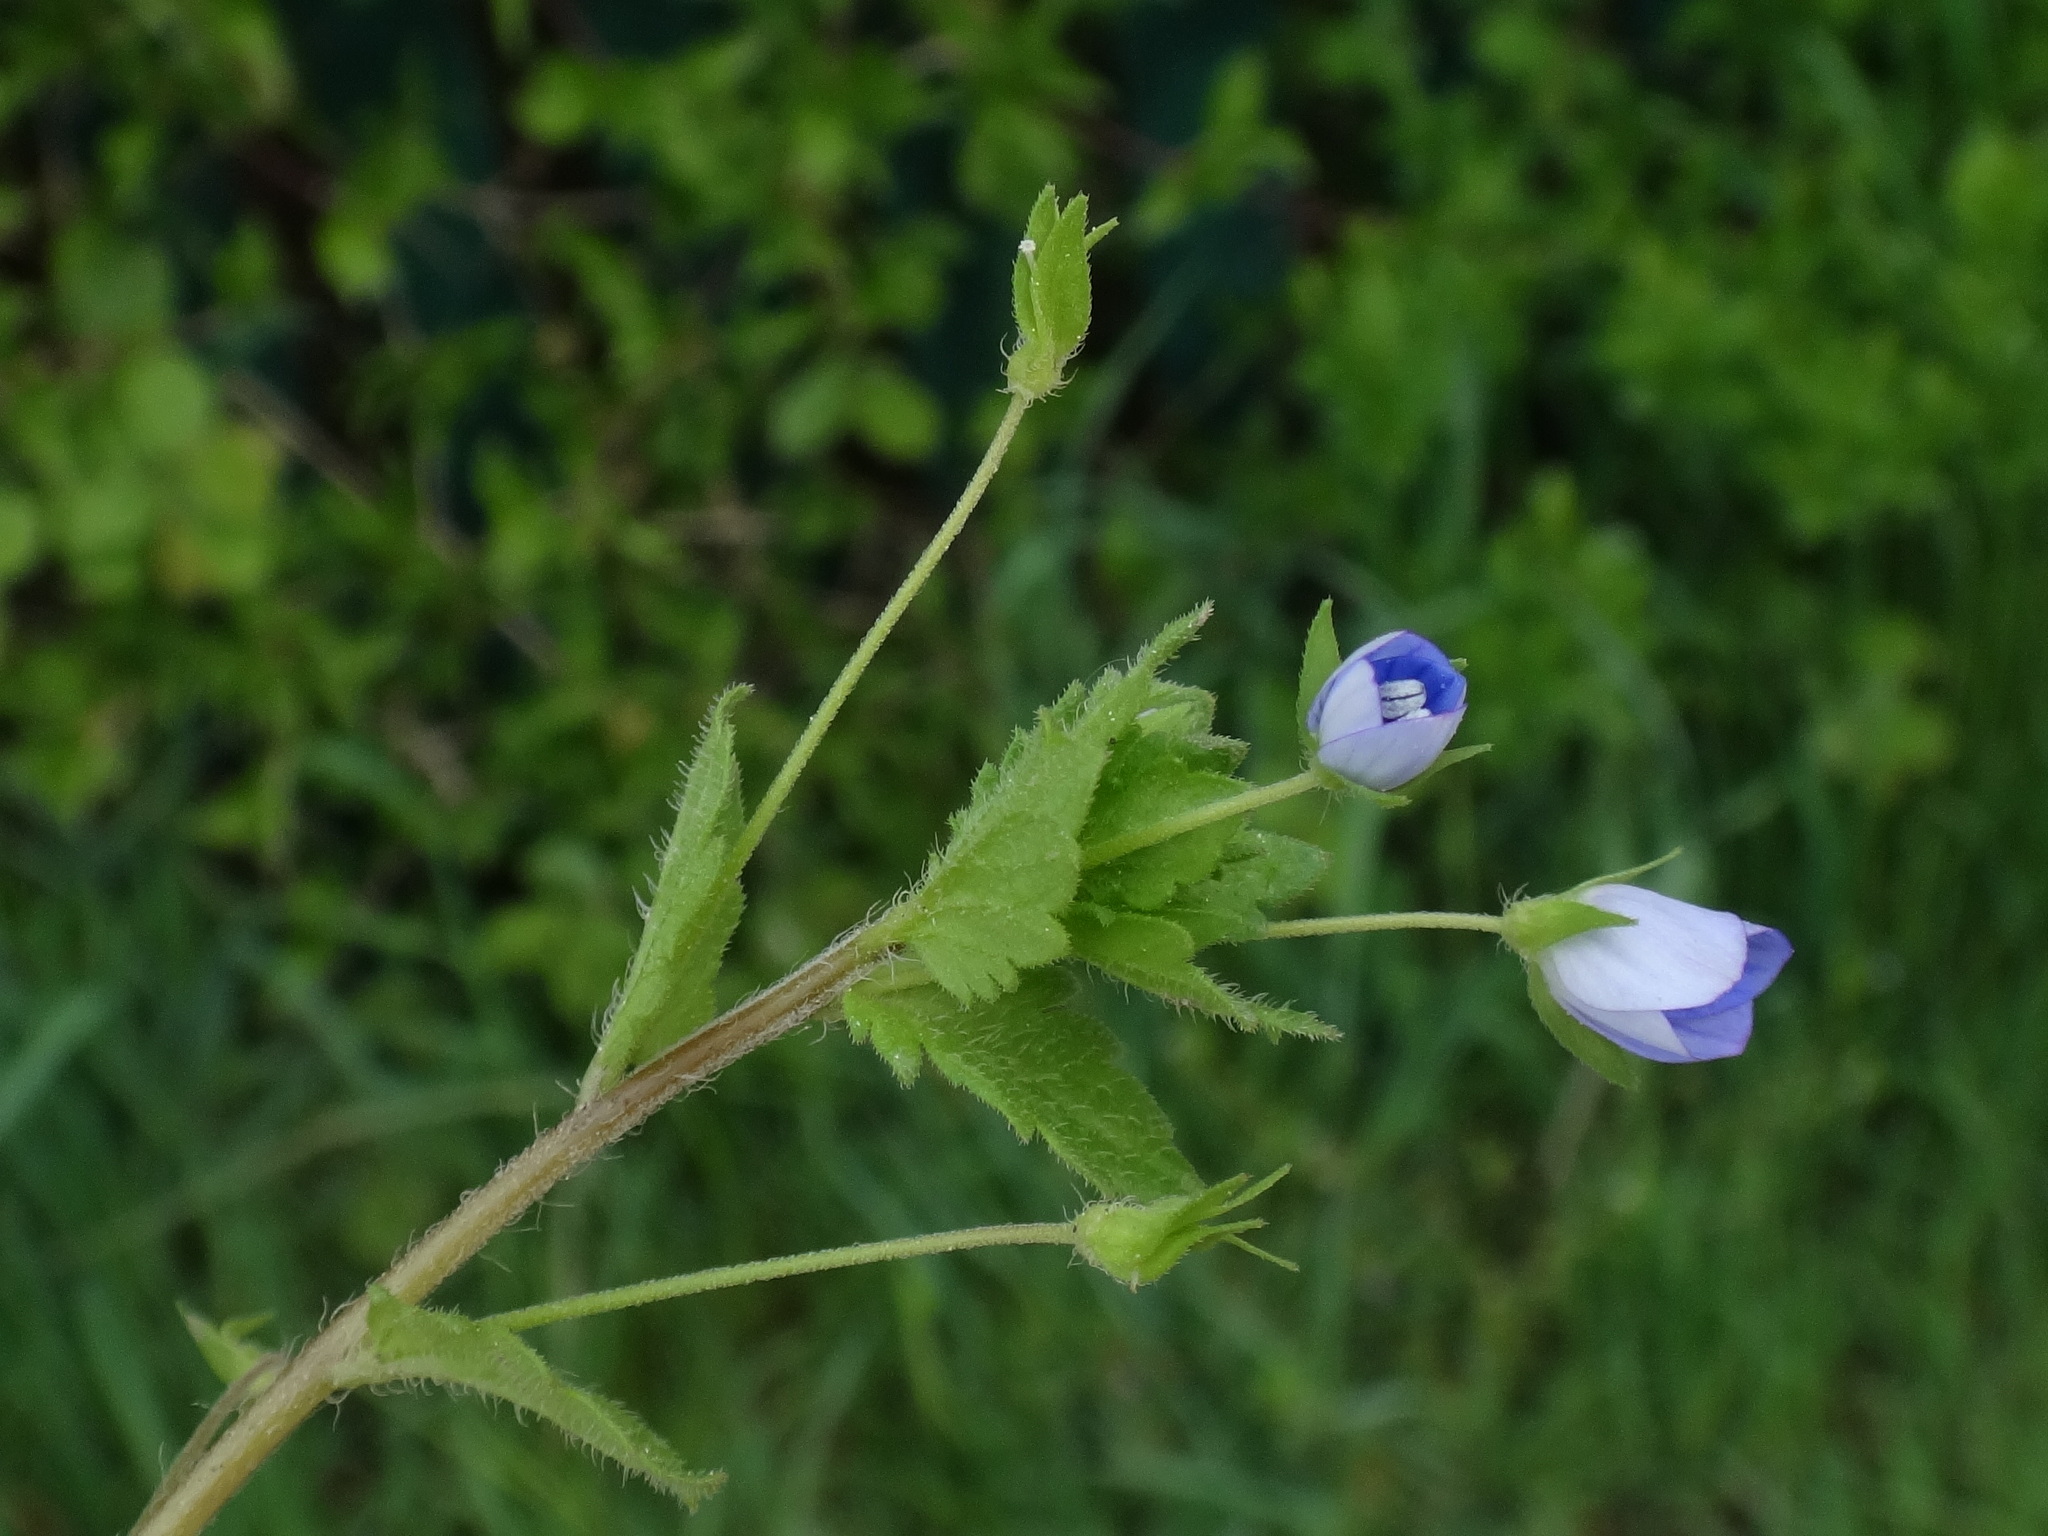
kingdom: Plantae
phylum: Tracheophyta
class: Magnoliopsida
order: Lamiales
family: Plantaginaceae
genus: Veronica
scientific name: Veronica persica
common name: Common field-speedwell
